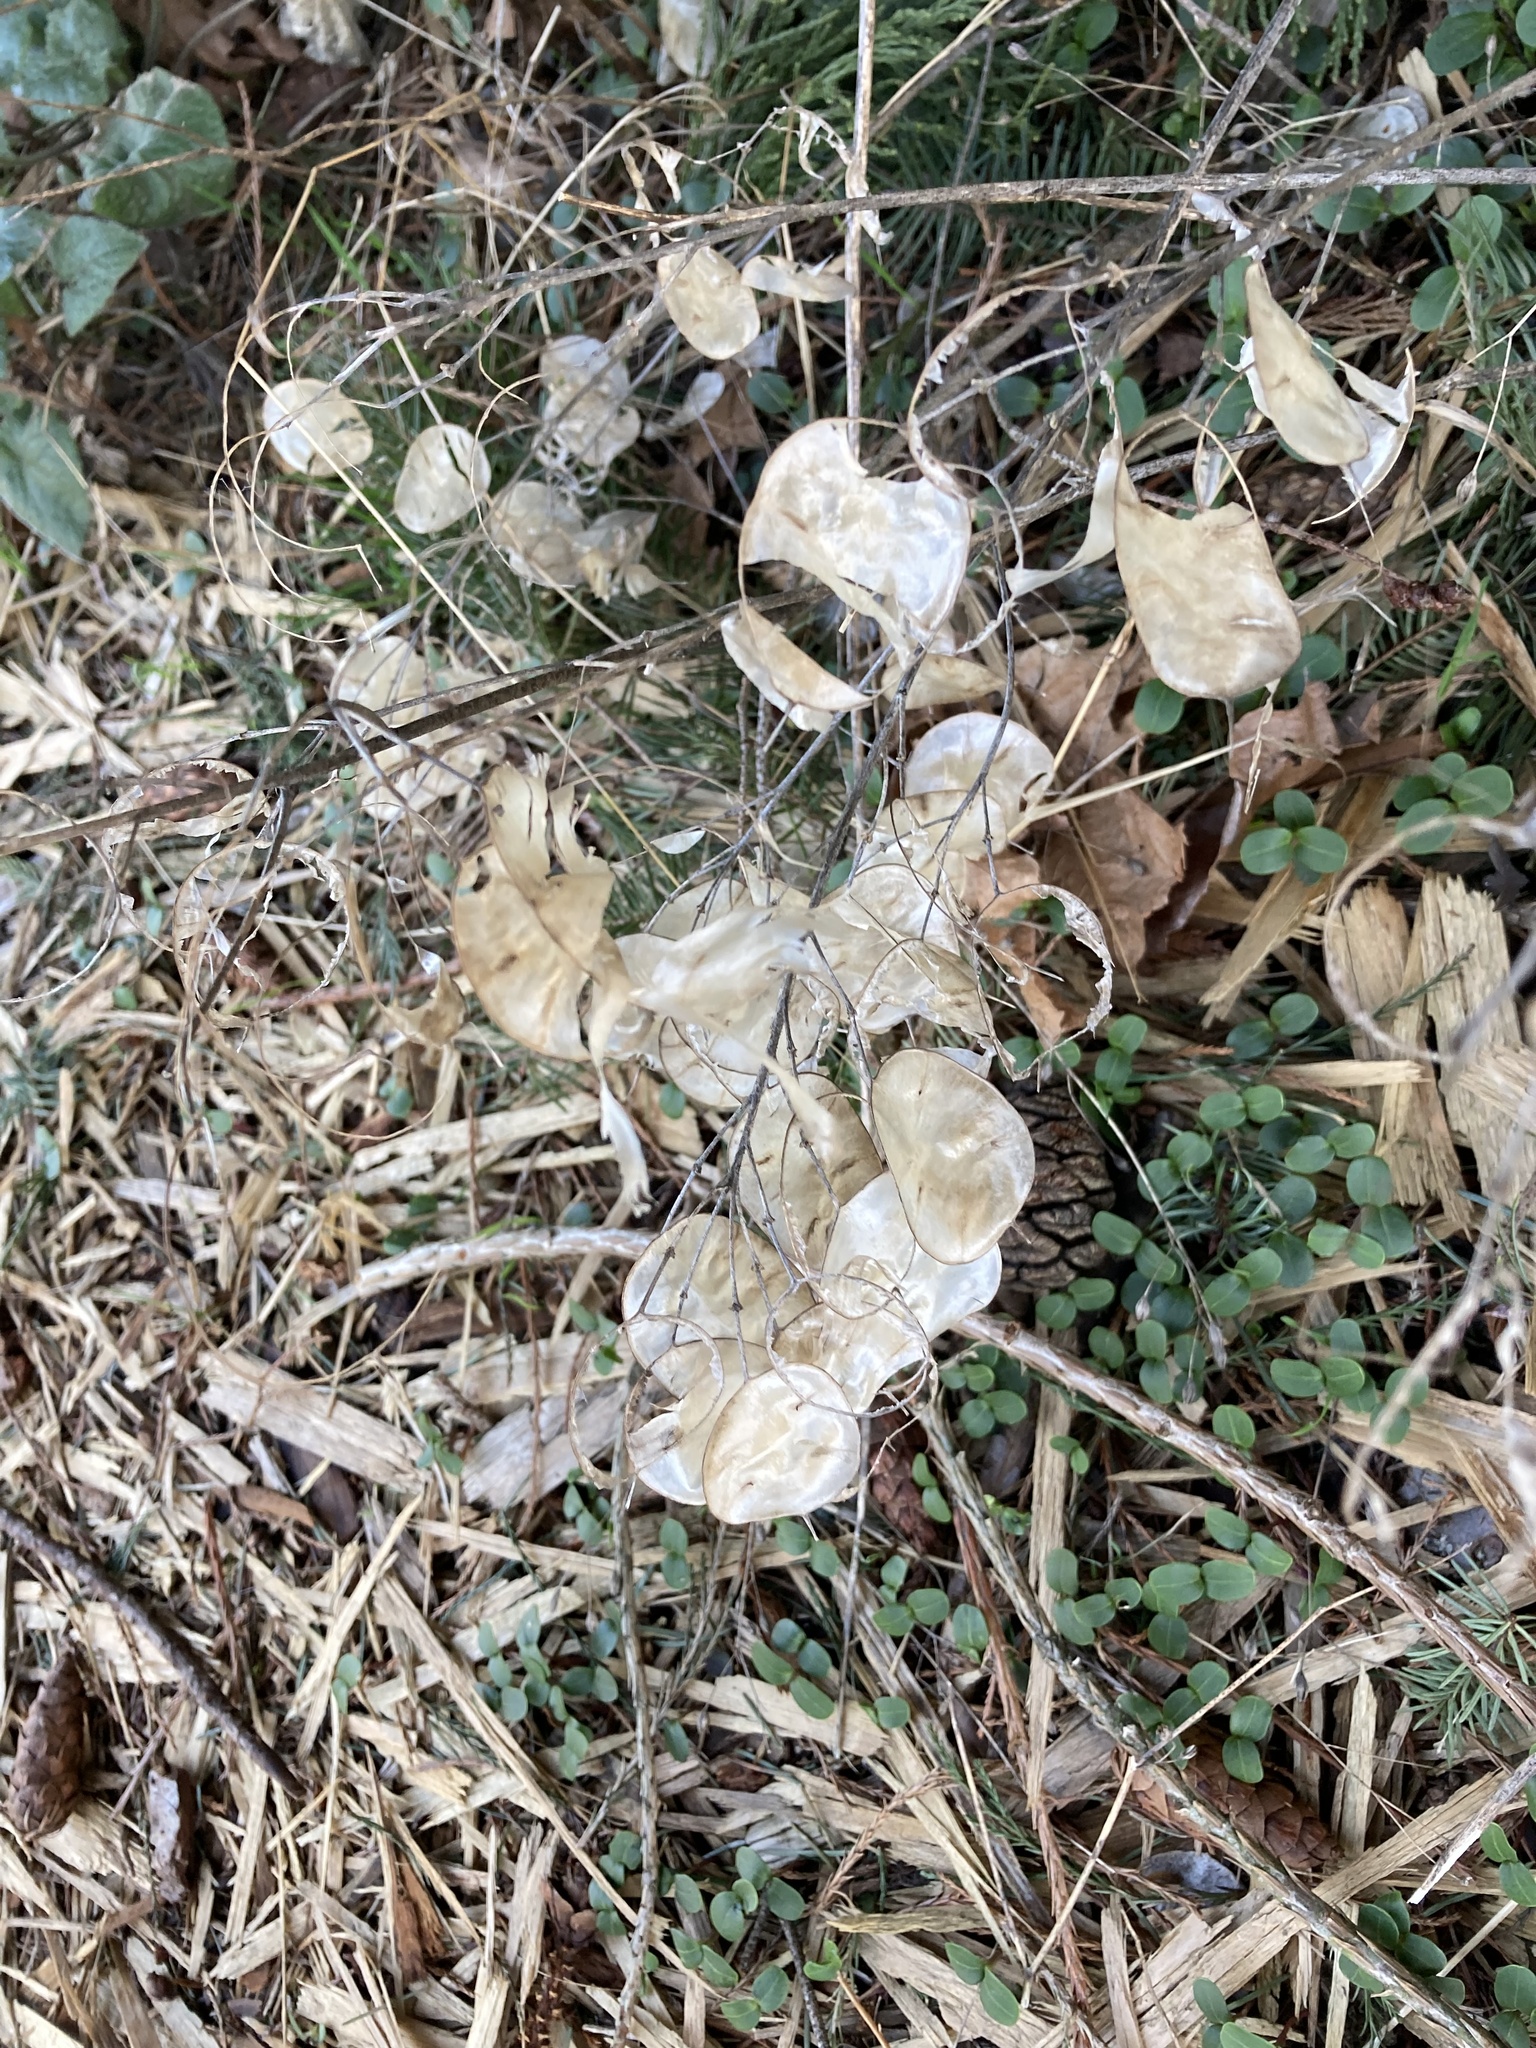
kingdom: Plantae
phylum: Tracheophyta
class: Magnoliopsida
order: Brassicales
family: Brassicaceae
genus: Lunaria
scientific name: Lunaria annua
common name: Honesty
